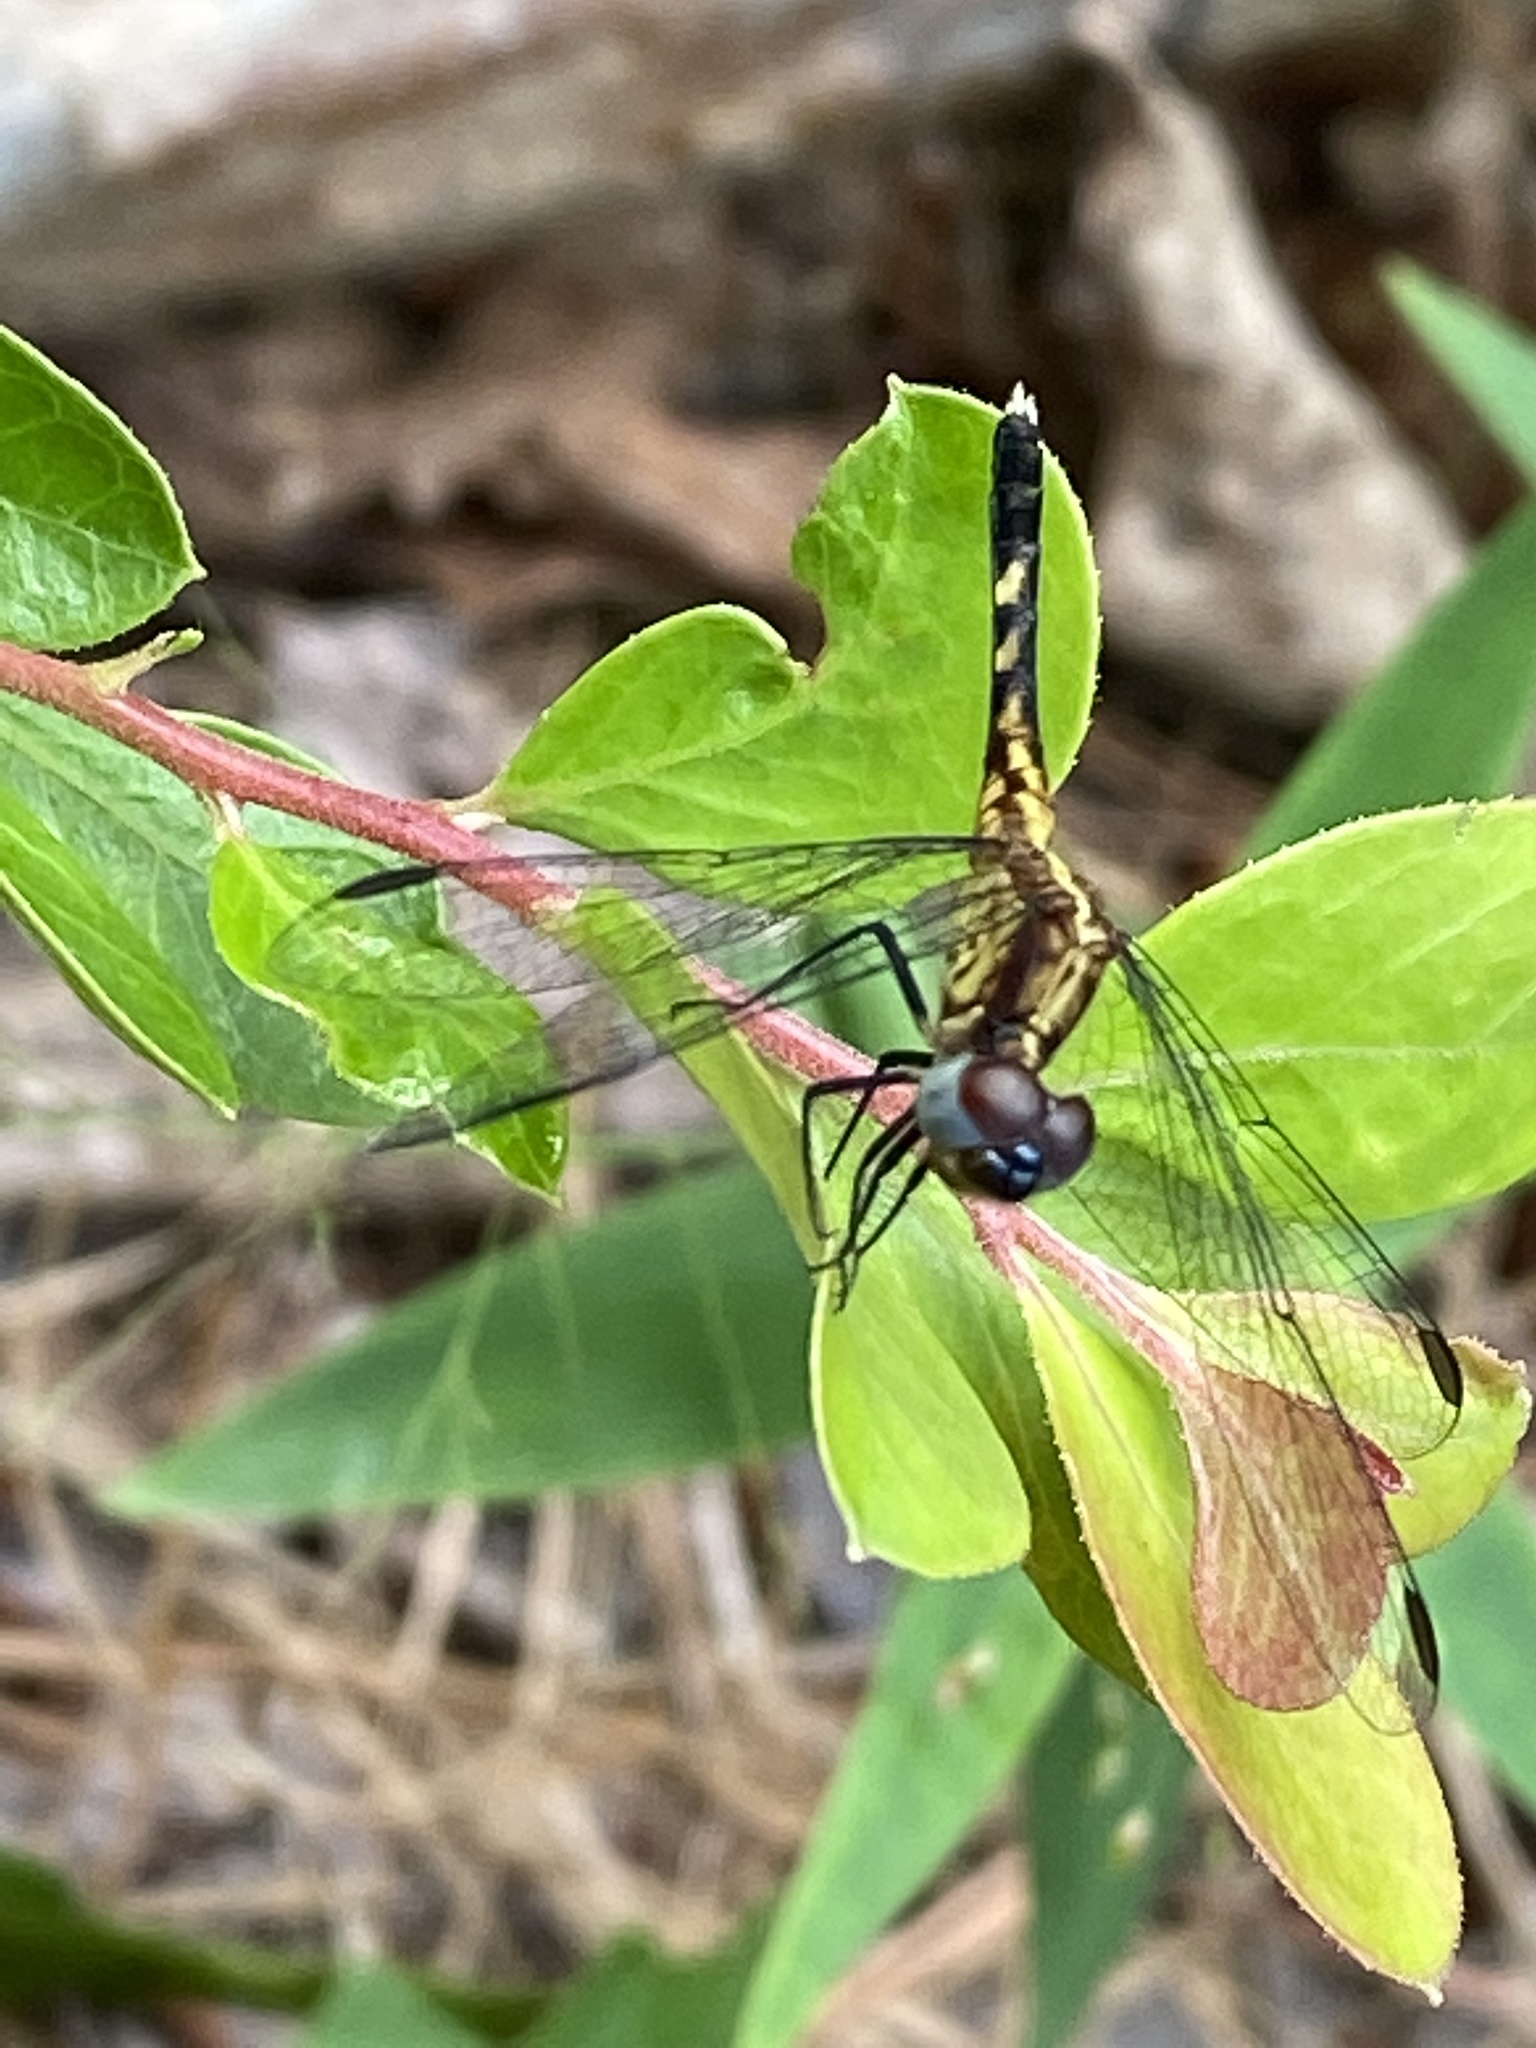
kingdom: Animalia
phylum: Arthropoda
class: Insecta
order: Odonata
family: Libellulidae
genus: Erythrodiplax
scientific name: Erythrodiplax minuscula
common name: Little blue dragonlet
